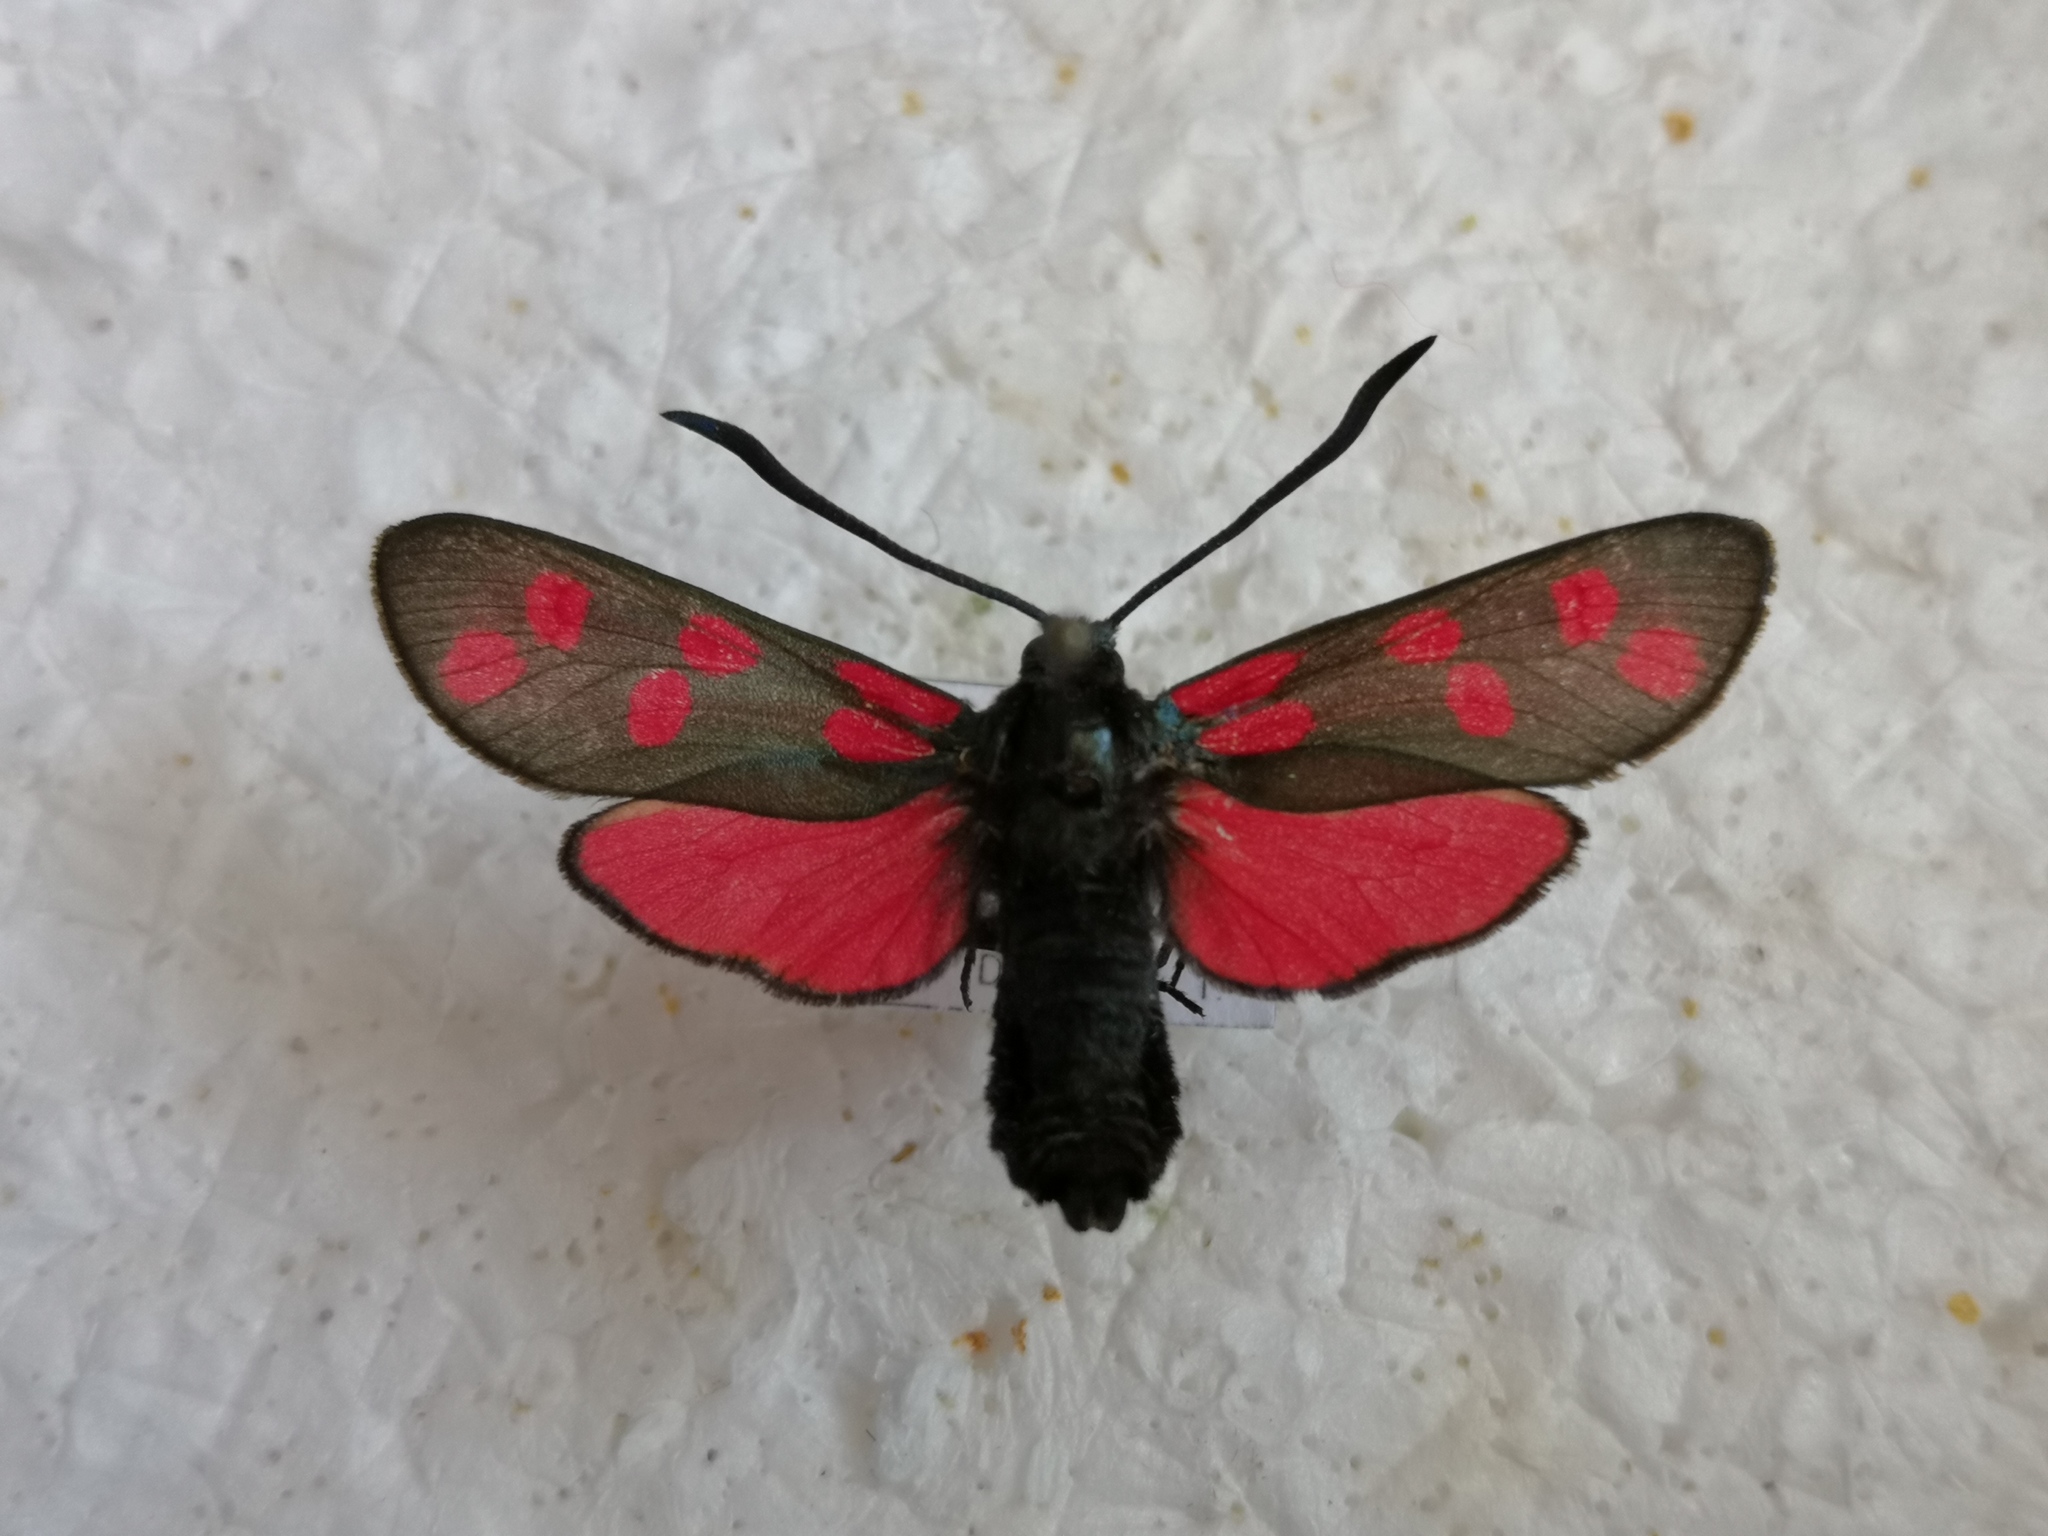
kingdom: Animalia
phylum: Arthropoda
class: Insecta
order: Lepidoptera
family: Zygaenidae
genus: Zygaena
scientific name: Zygaena filipendulae
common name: Six-spot burnet
